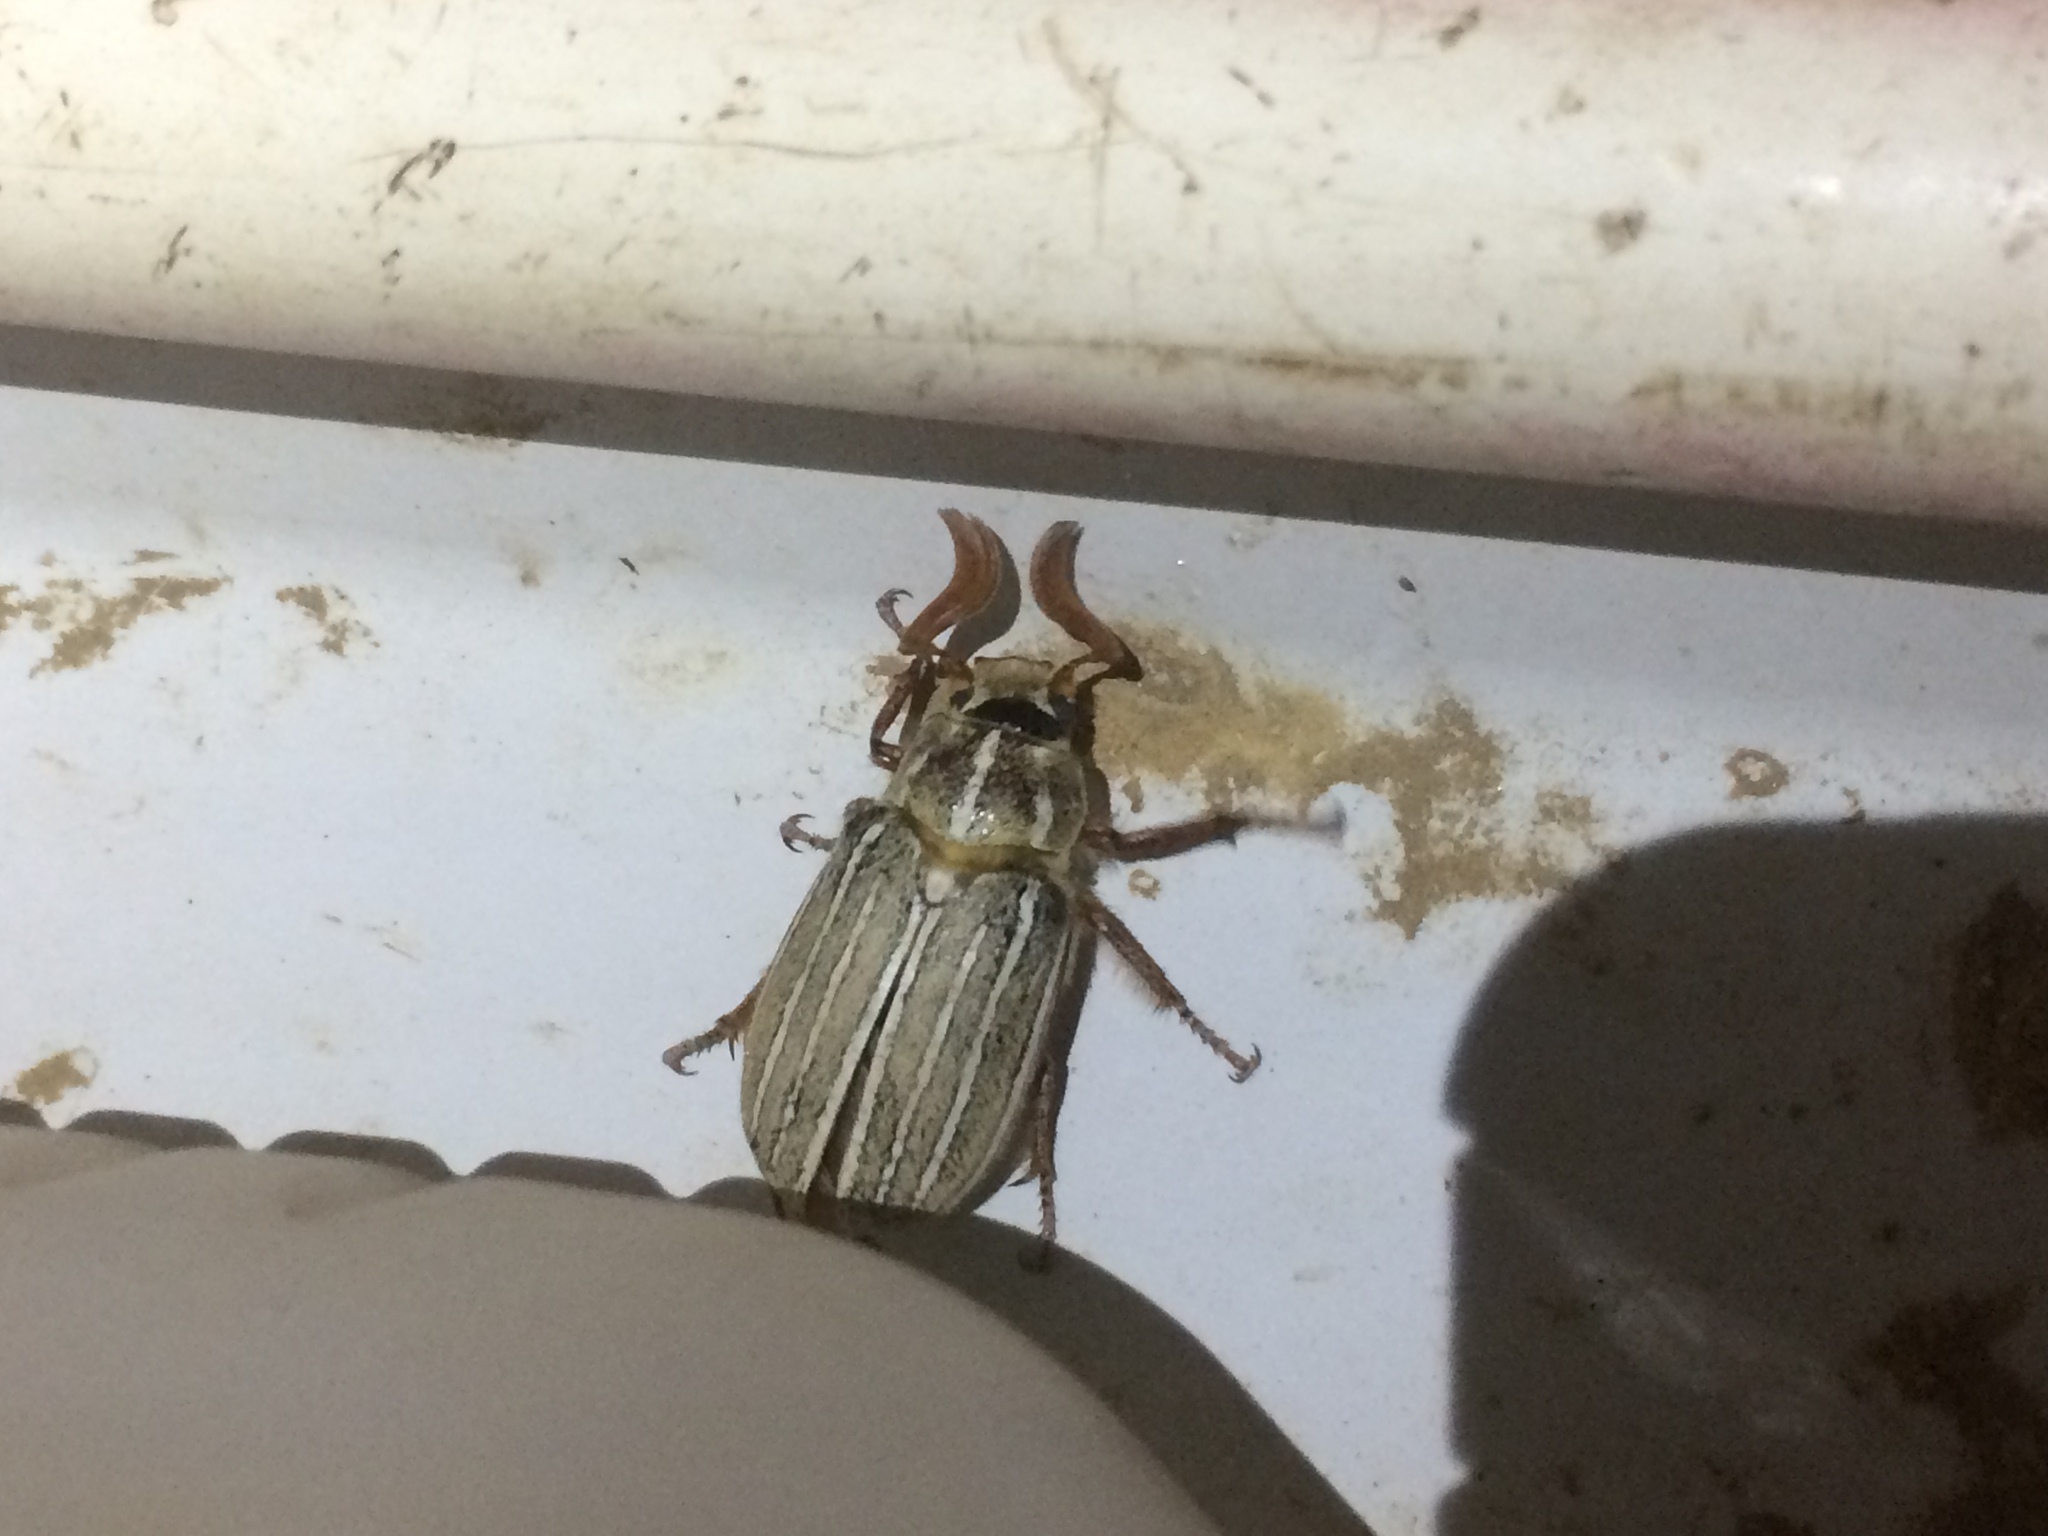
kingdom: Animalia
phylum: Arthropoda
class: Insecta
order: Coleoptera
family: Scarabaeidae
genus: Polyphylla
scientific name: Polyphylla decemlineata
